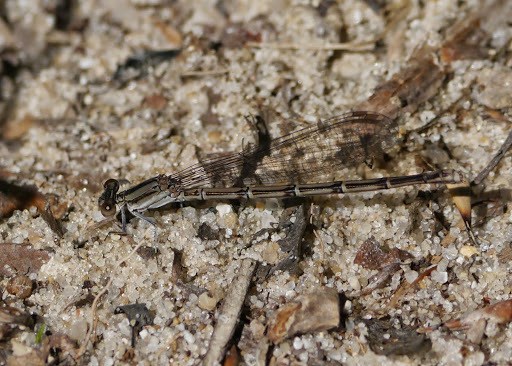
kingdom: Animalia
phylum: Arthropoda
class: Insecta
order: Odonata
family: Coenagrionidae
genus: Argia
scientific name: Argia fumipennis
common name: Variable dancer
